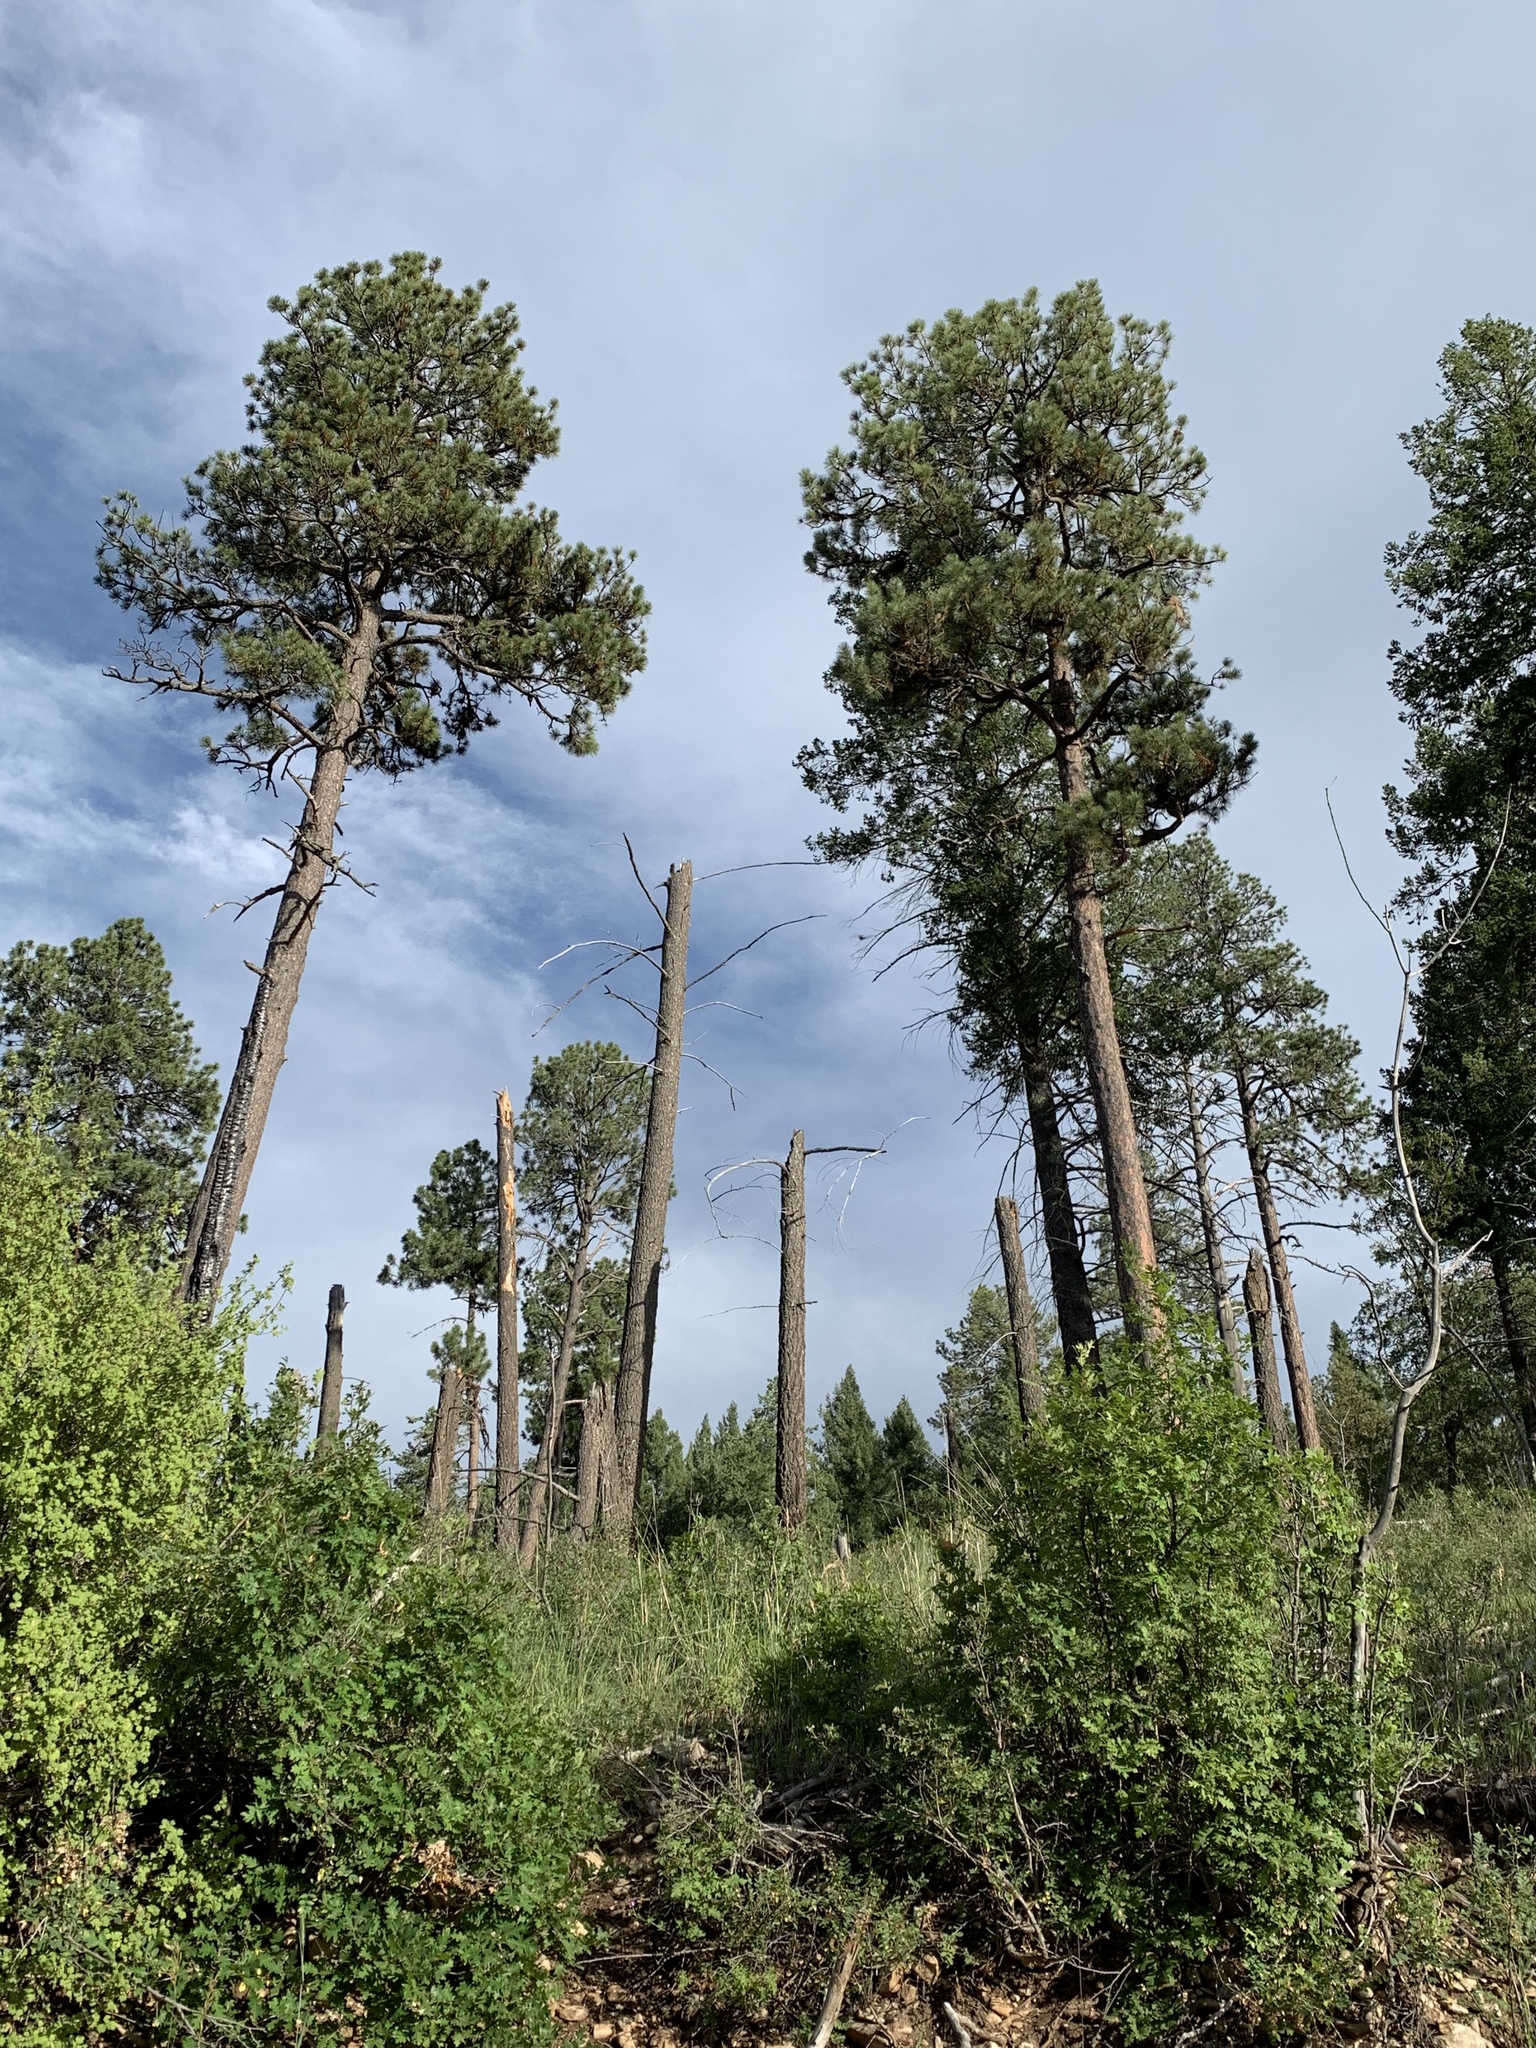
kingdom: Plantae
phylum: Tracheophyta
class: Pinopsida
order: Pinales
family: Pinaceae
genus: Pinus
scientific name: Pinus ponderosa
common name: Western yellow-pine
